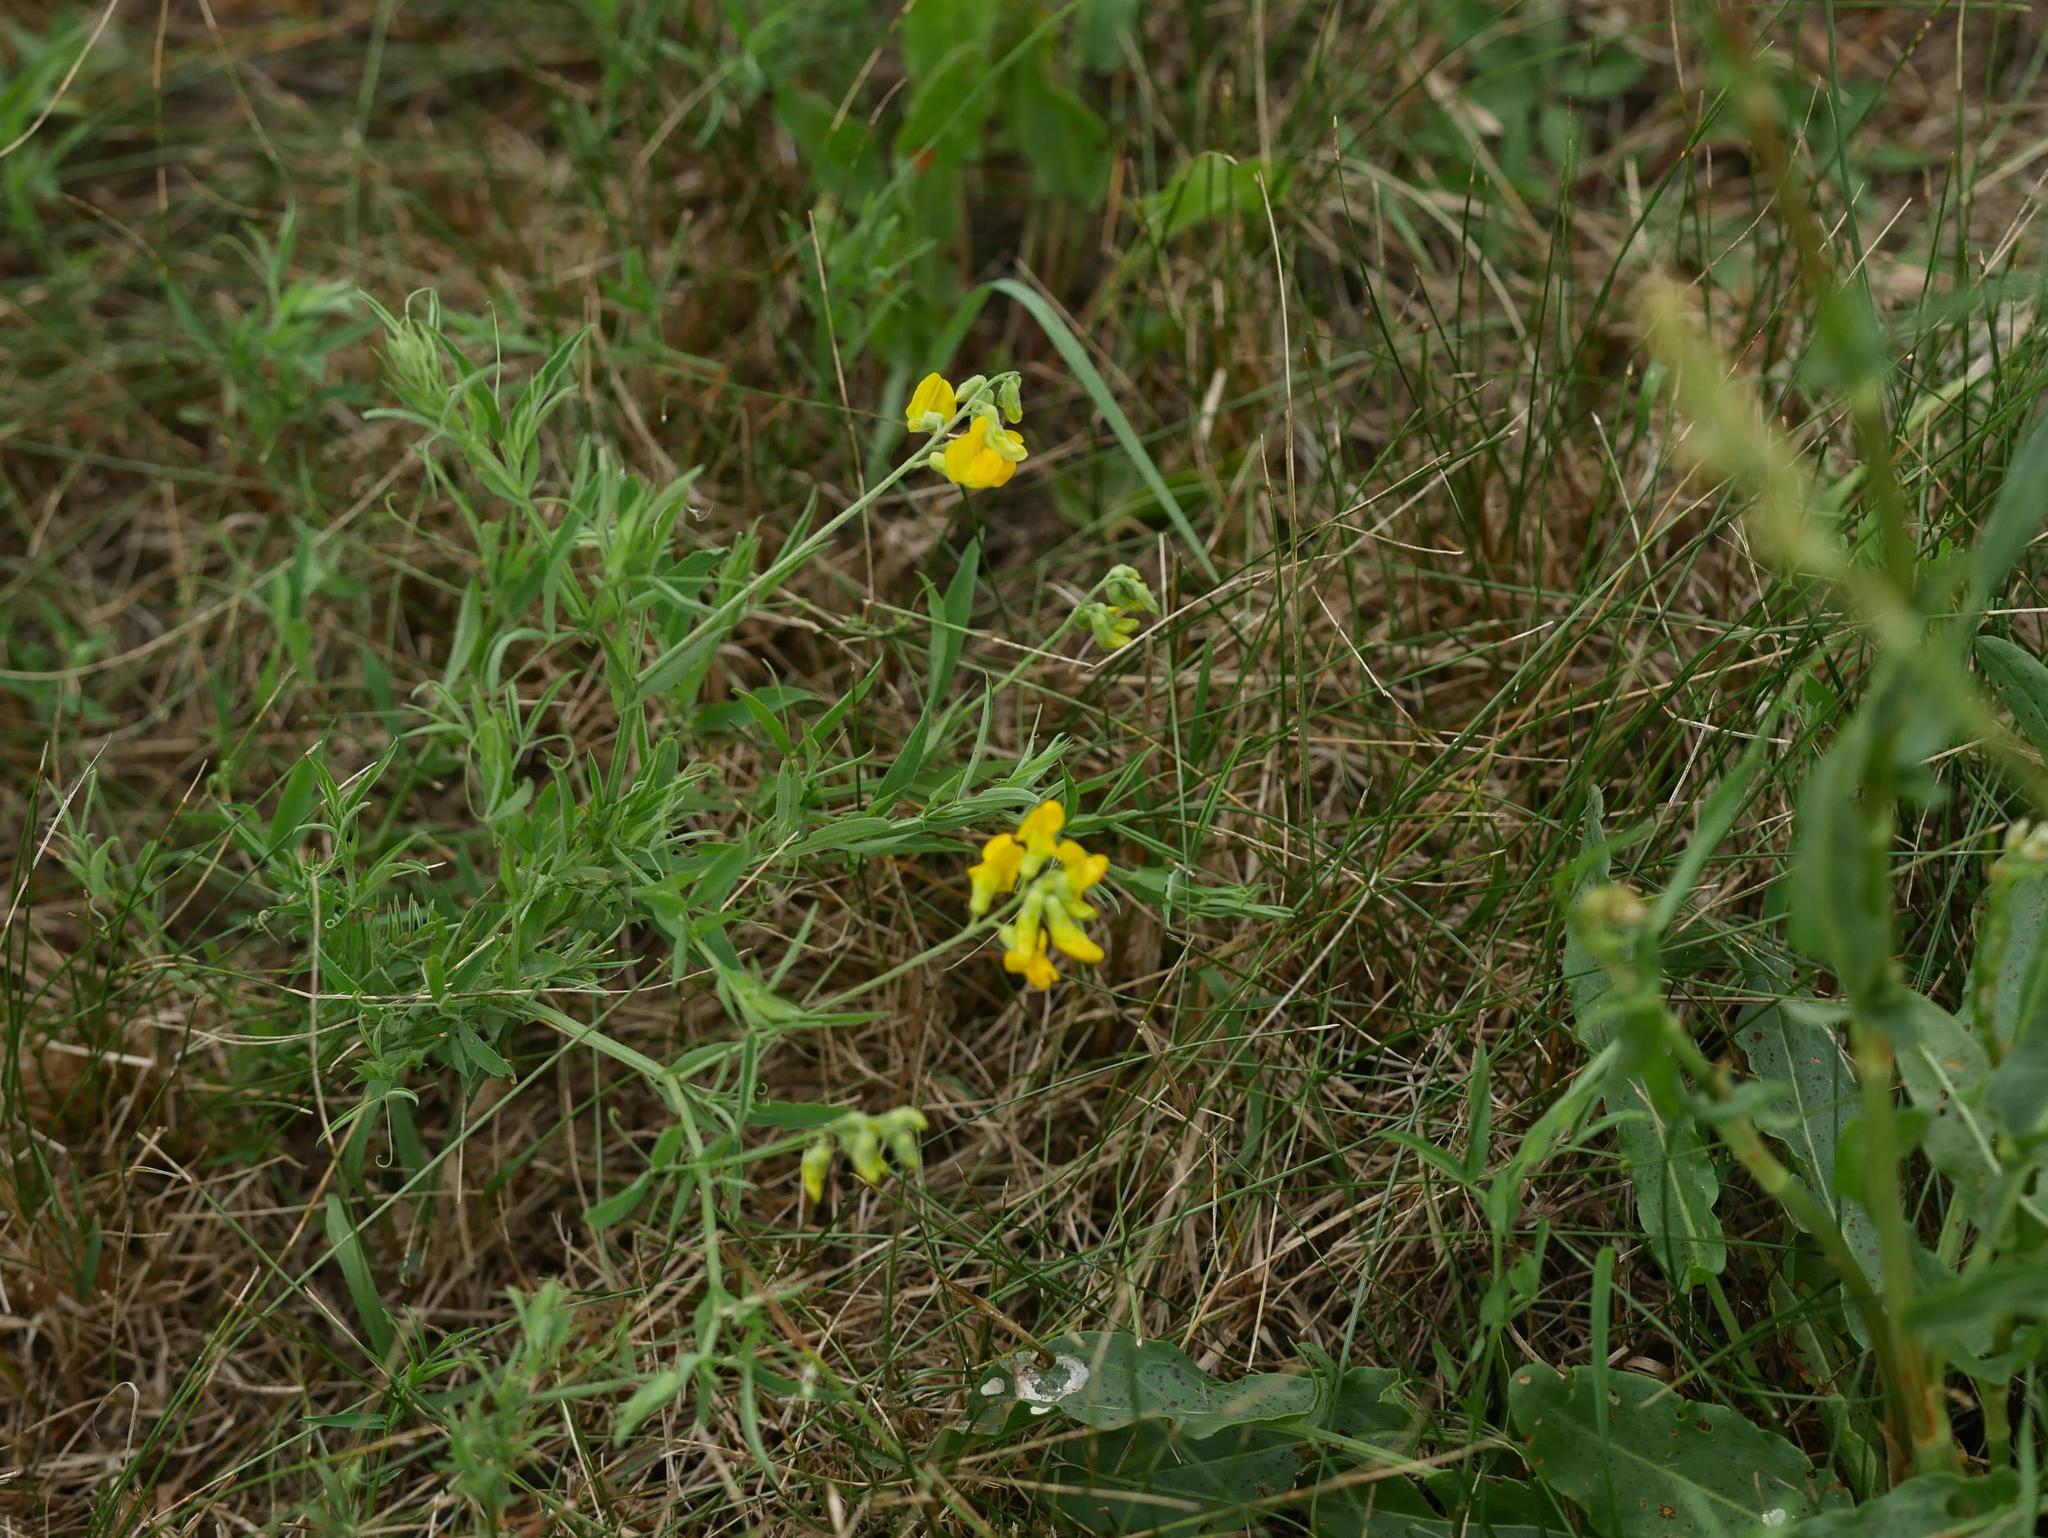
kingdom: Plantae
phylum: Tracheophyta
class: Magnoliopsida
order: Fabales
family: Fabaceae
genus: Lathyrus
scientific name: Lathyrus pratensis
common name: Meadow vetchling
